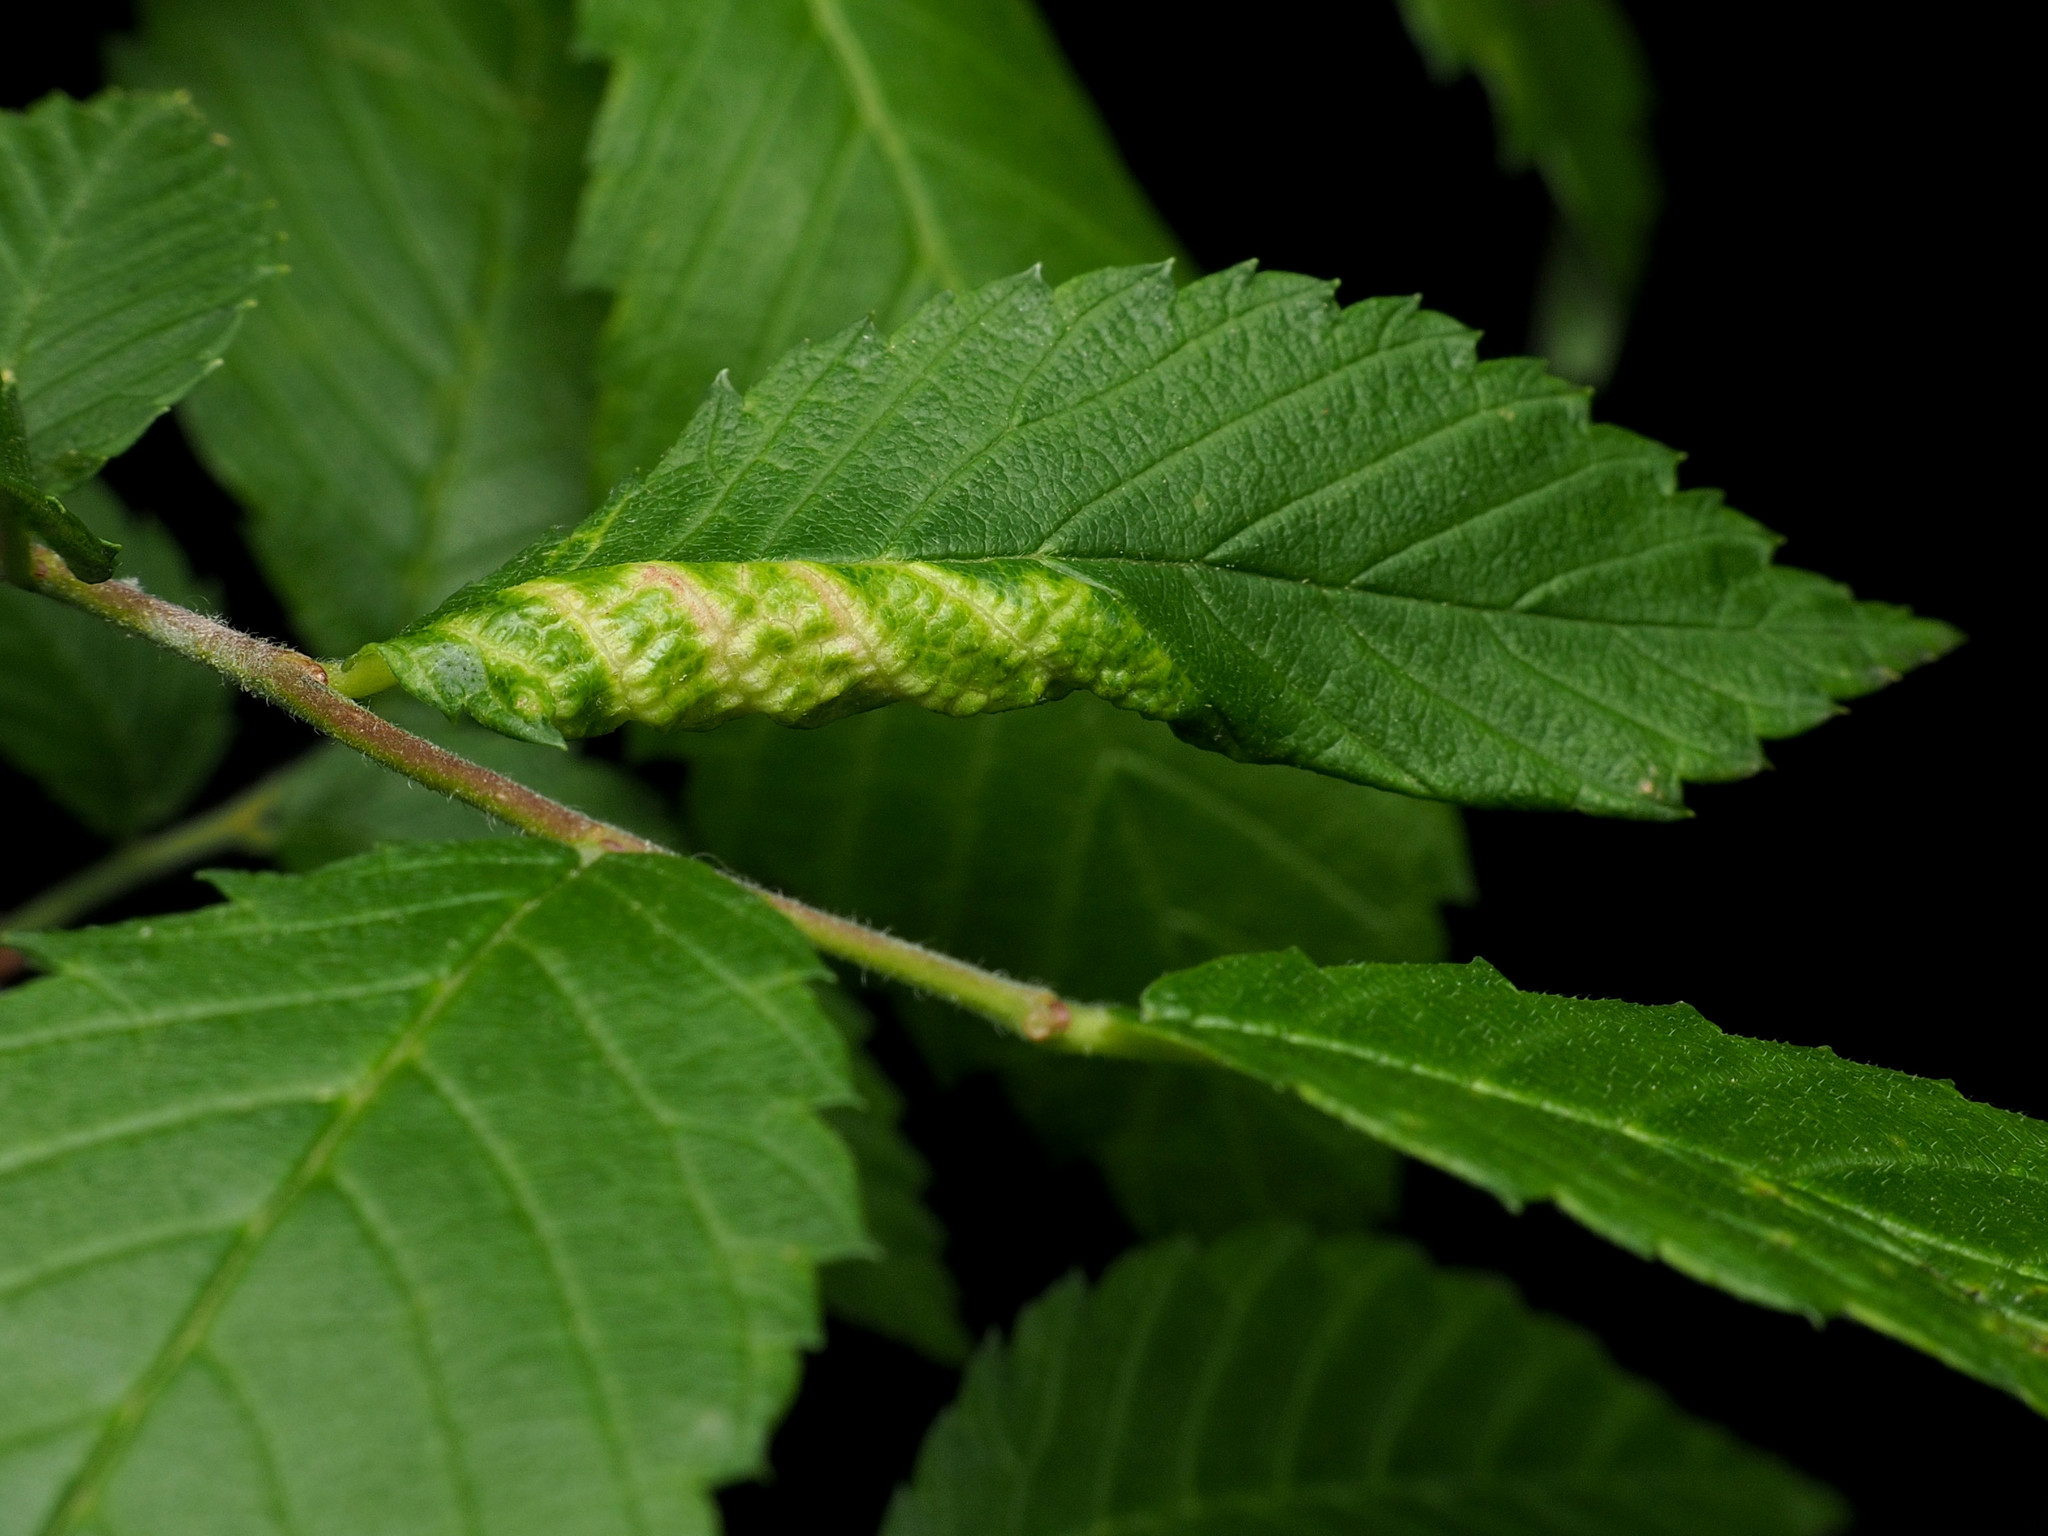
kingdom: Animalia
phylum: Arthropoda
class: Insecta
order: Hemiptera
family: Aphididae
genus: Eriosoma
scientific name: Eriosoma americanum
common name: Woolly elm aphid
